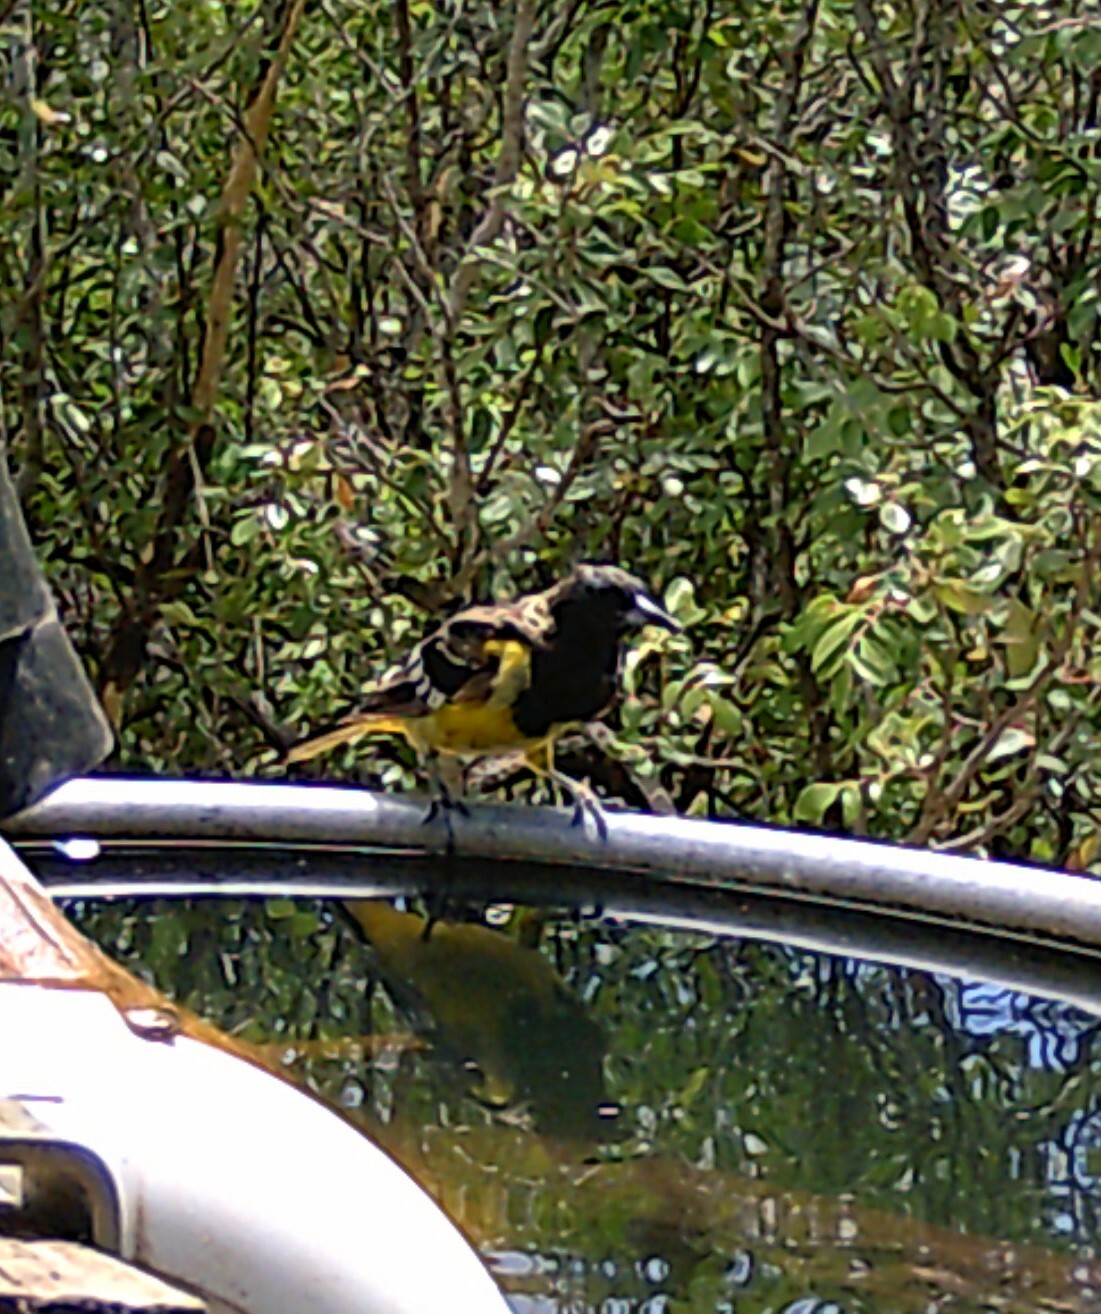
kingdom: Animalia
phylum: Chordata
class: Aves
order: Passeriformes
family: Icteridae
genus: Icterus
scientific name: Icterus parisorum
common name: Scott's oriole
